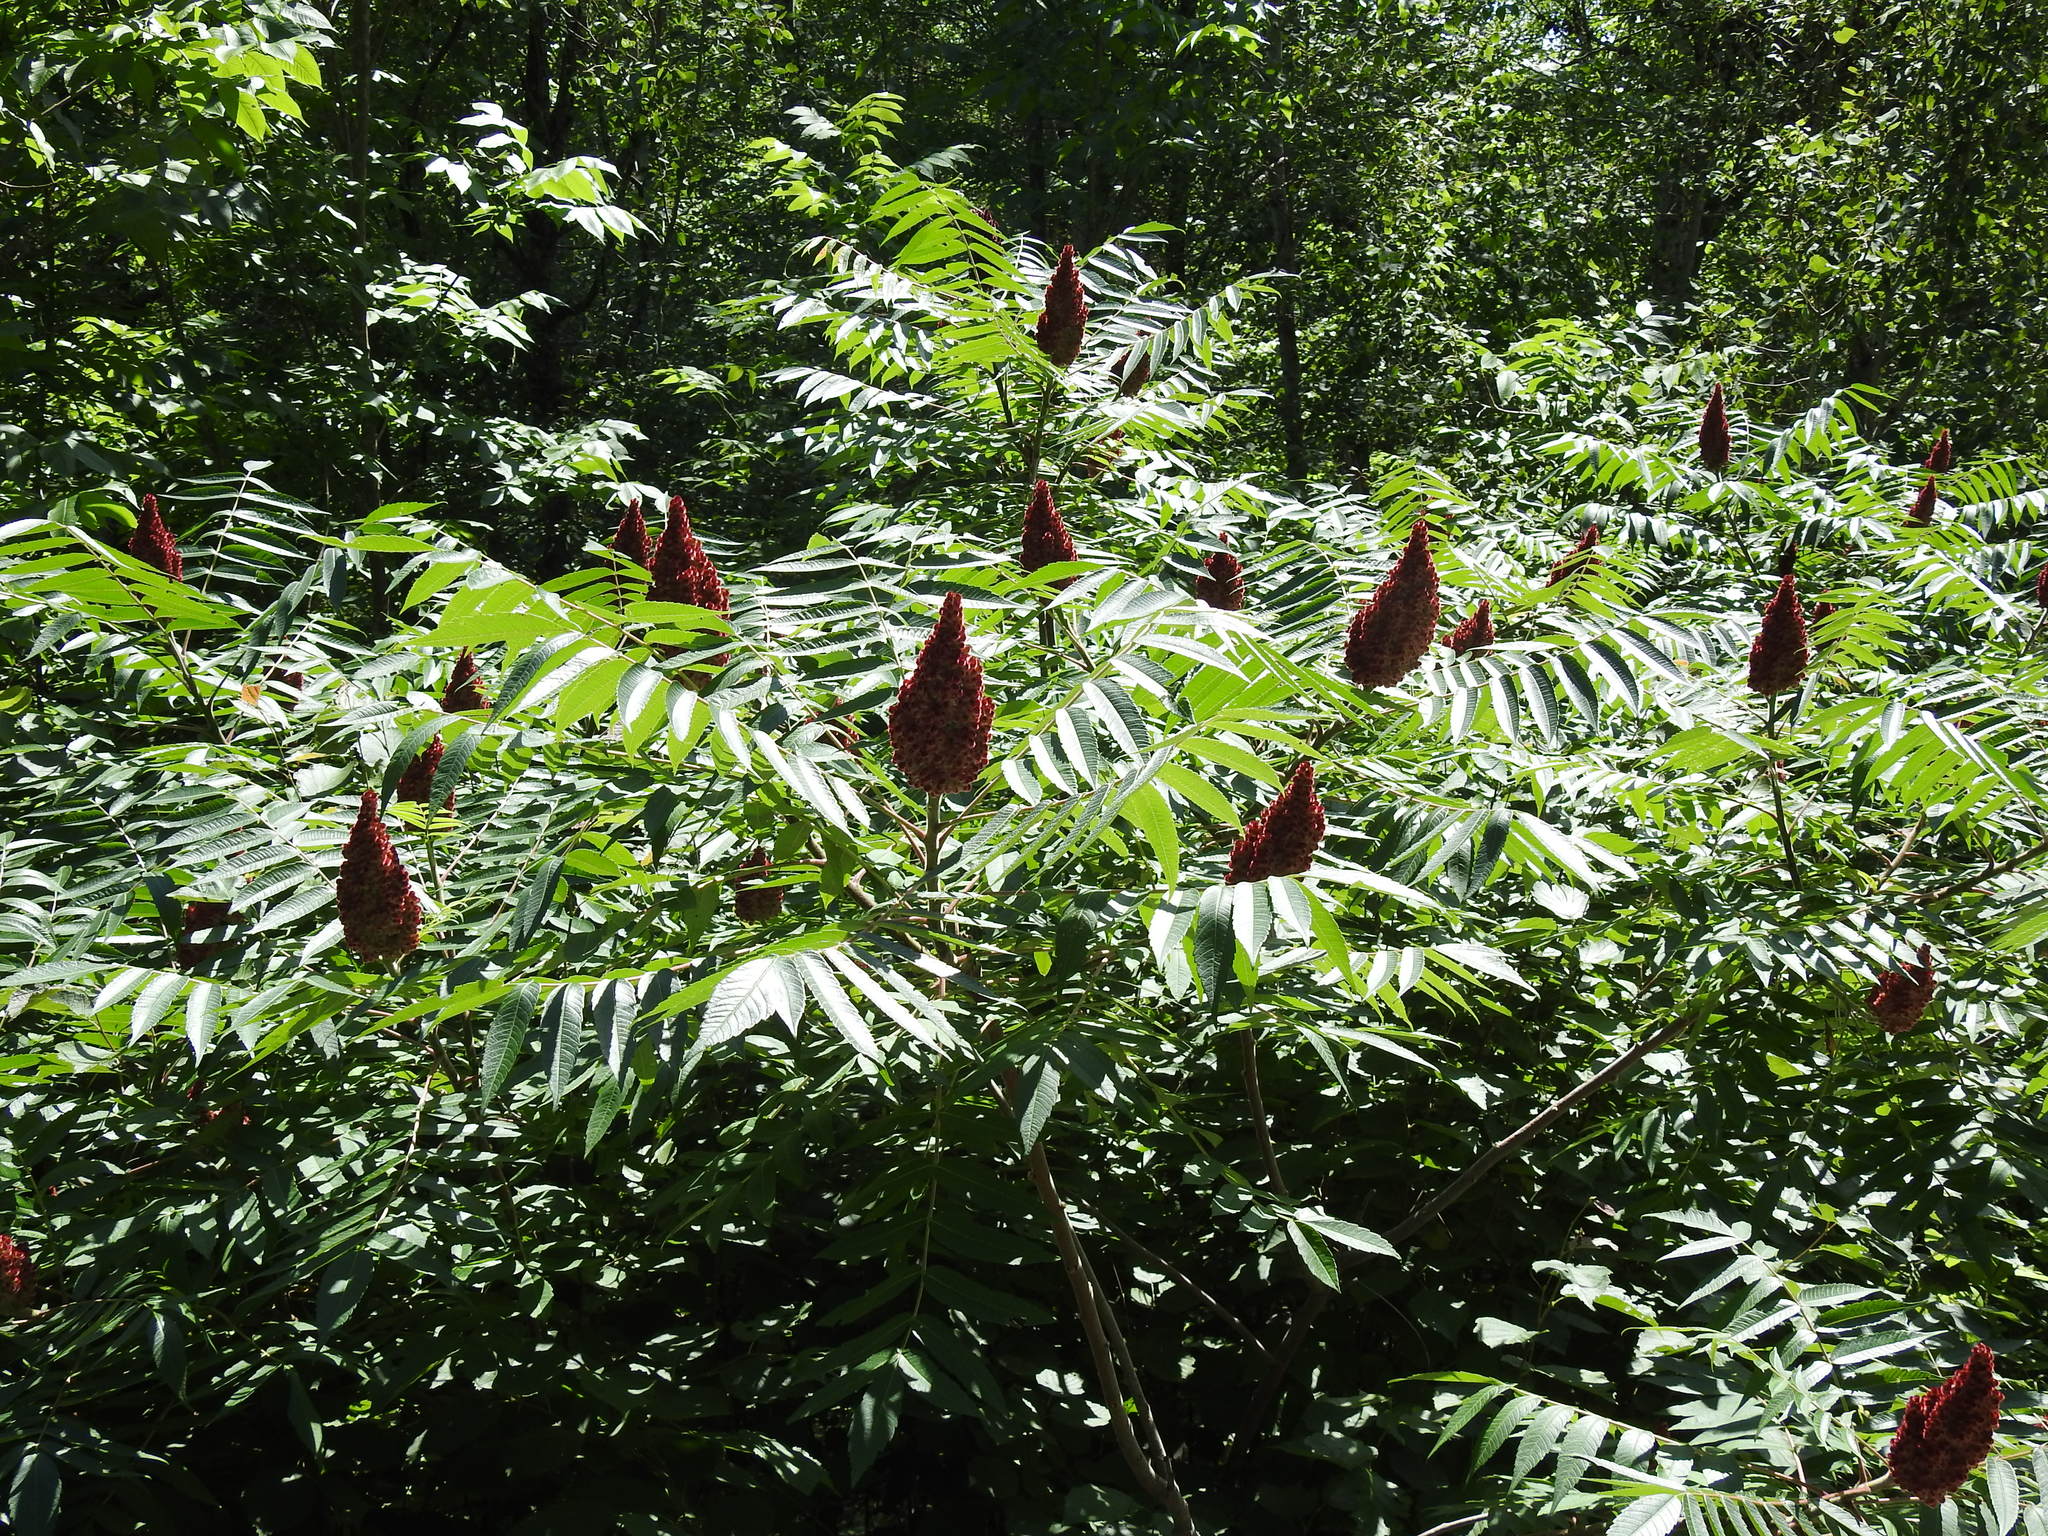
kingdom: Plantae
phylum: Tracheophyta
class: Magnoliopsida
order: Sapindales
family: Anacardiaceae
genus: Rhus
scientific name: Rhus typhina
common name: Staghorn sumac
